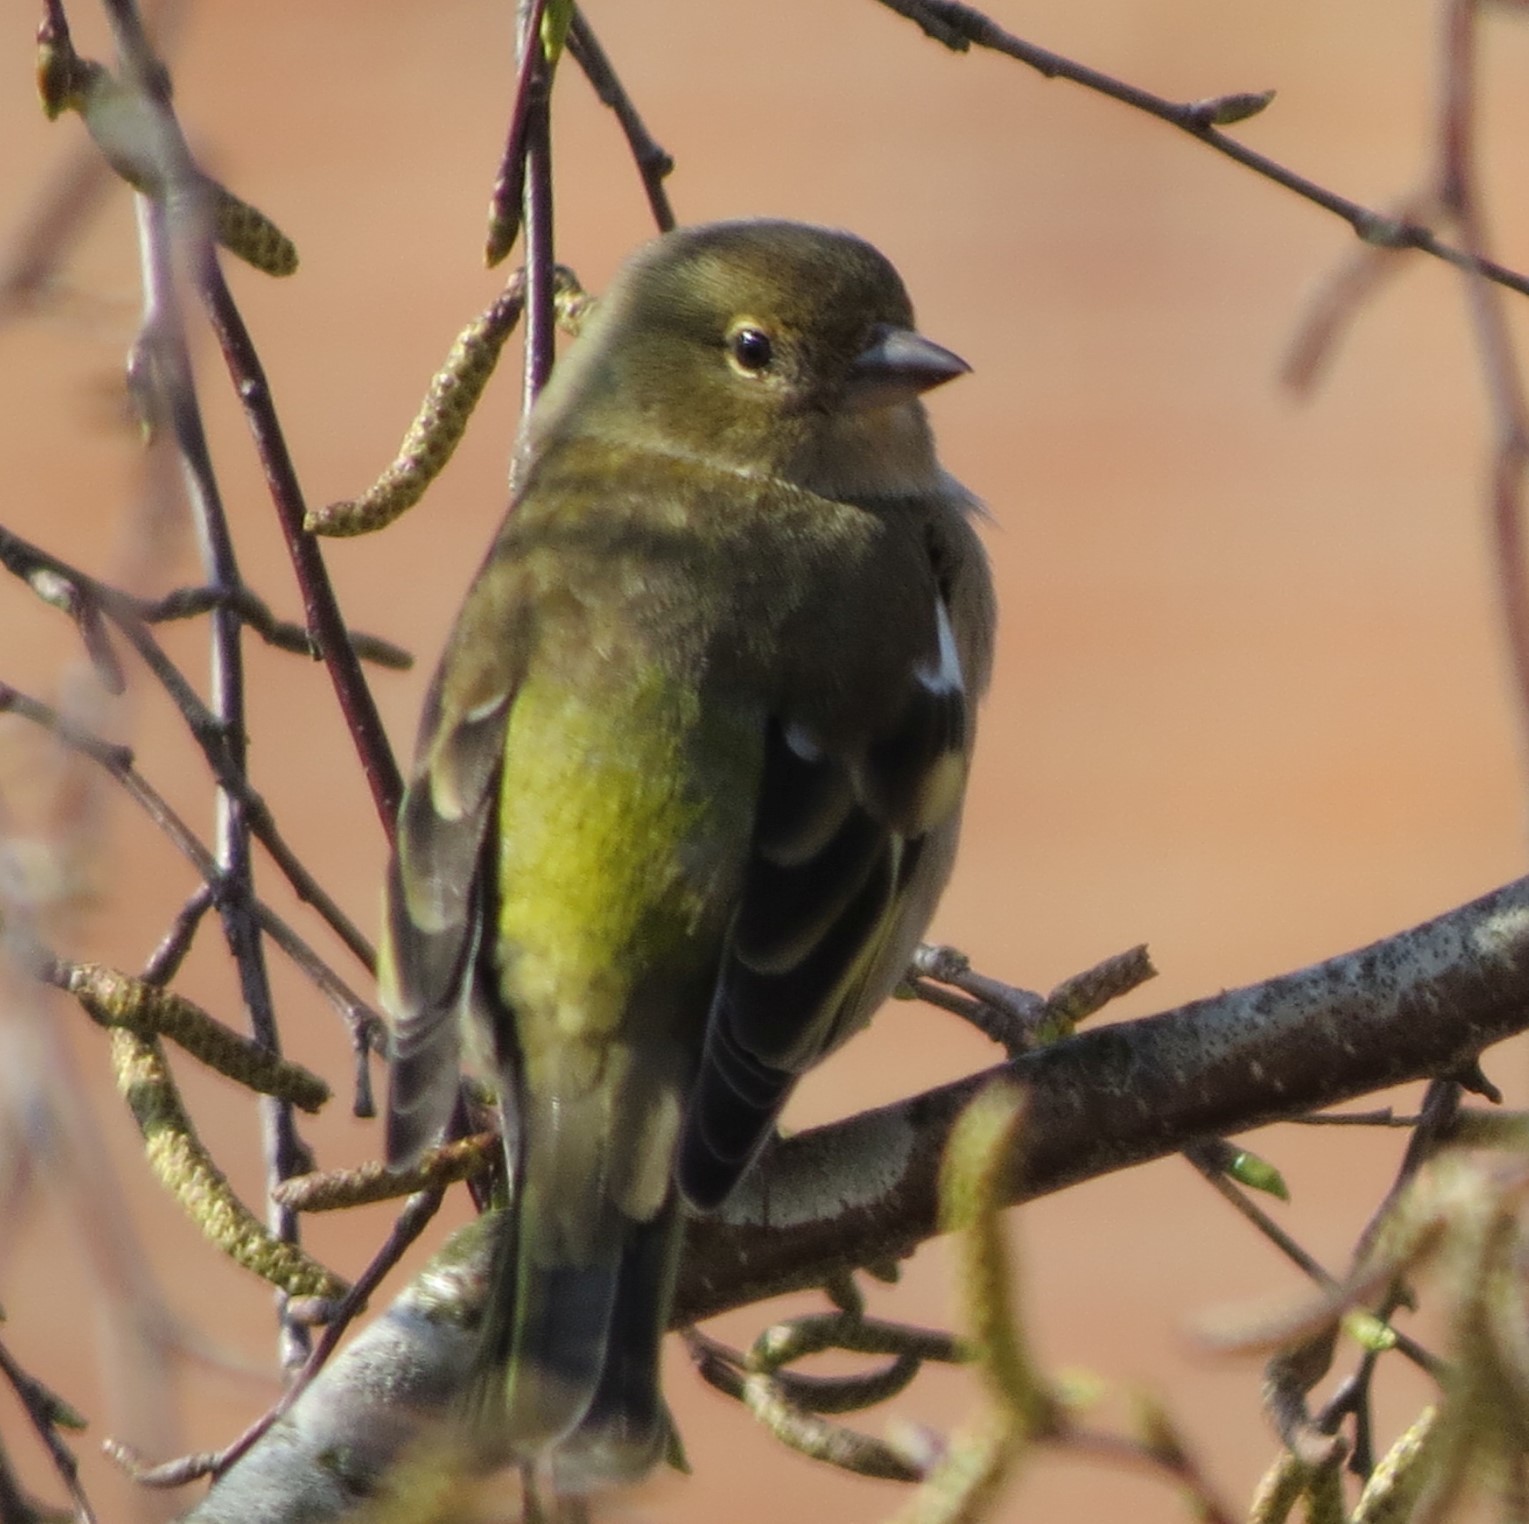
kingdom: Animalia
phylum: Chordata
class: Aves
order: Passeriformes
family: Fringillidae
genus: Fringilla
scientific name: Fringilla coelebs
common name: Common chaffinch
